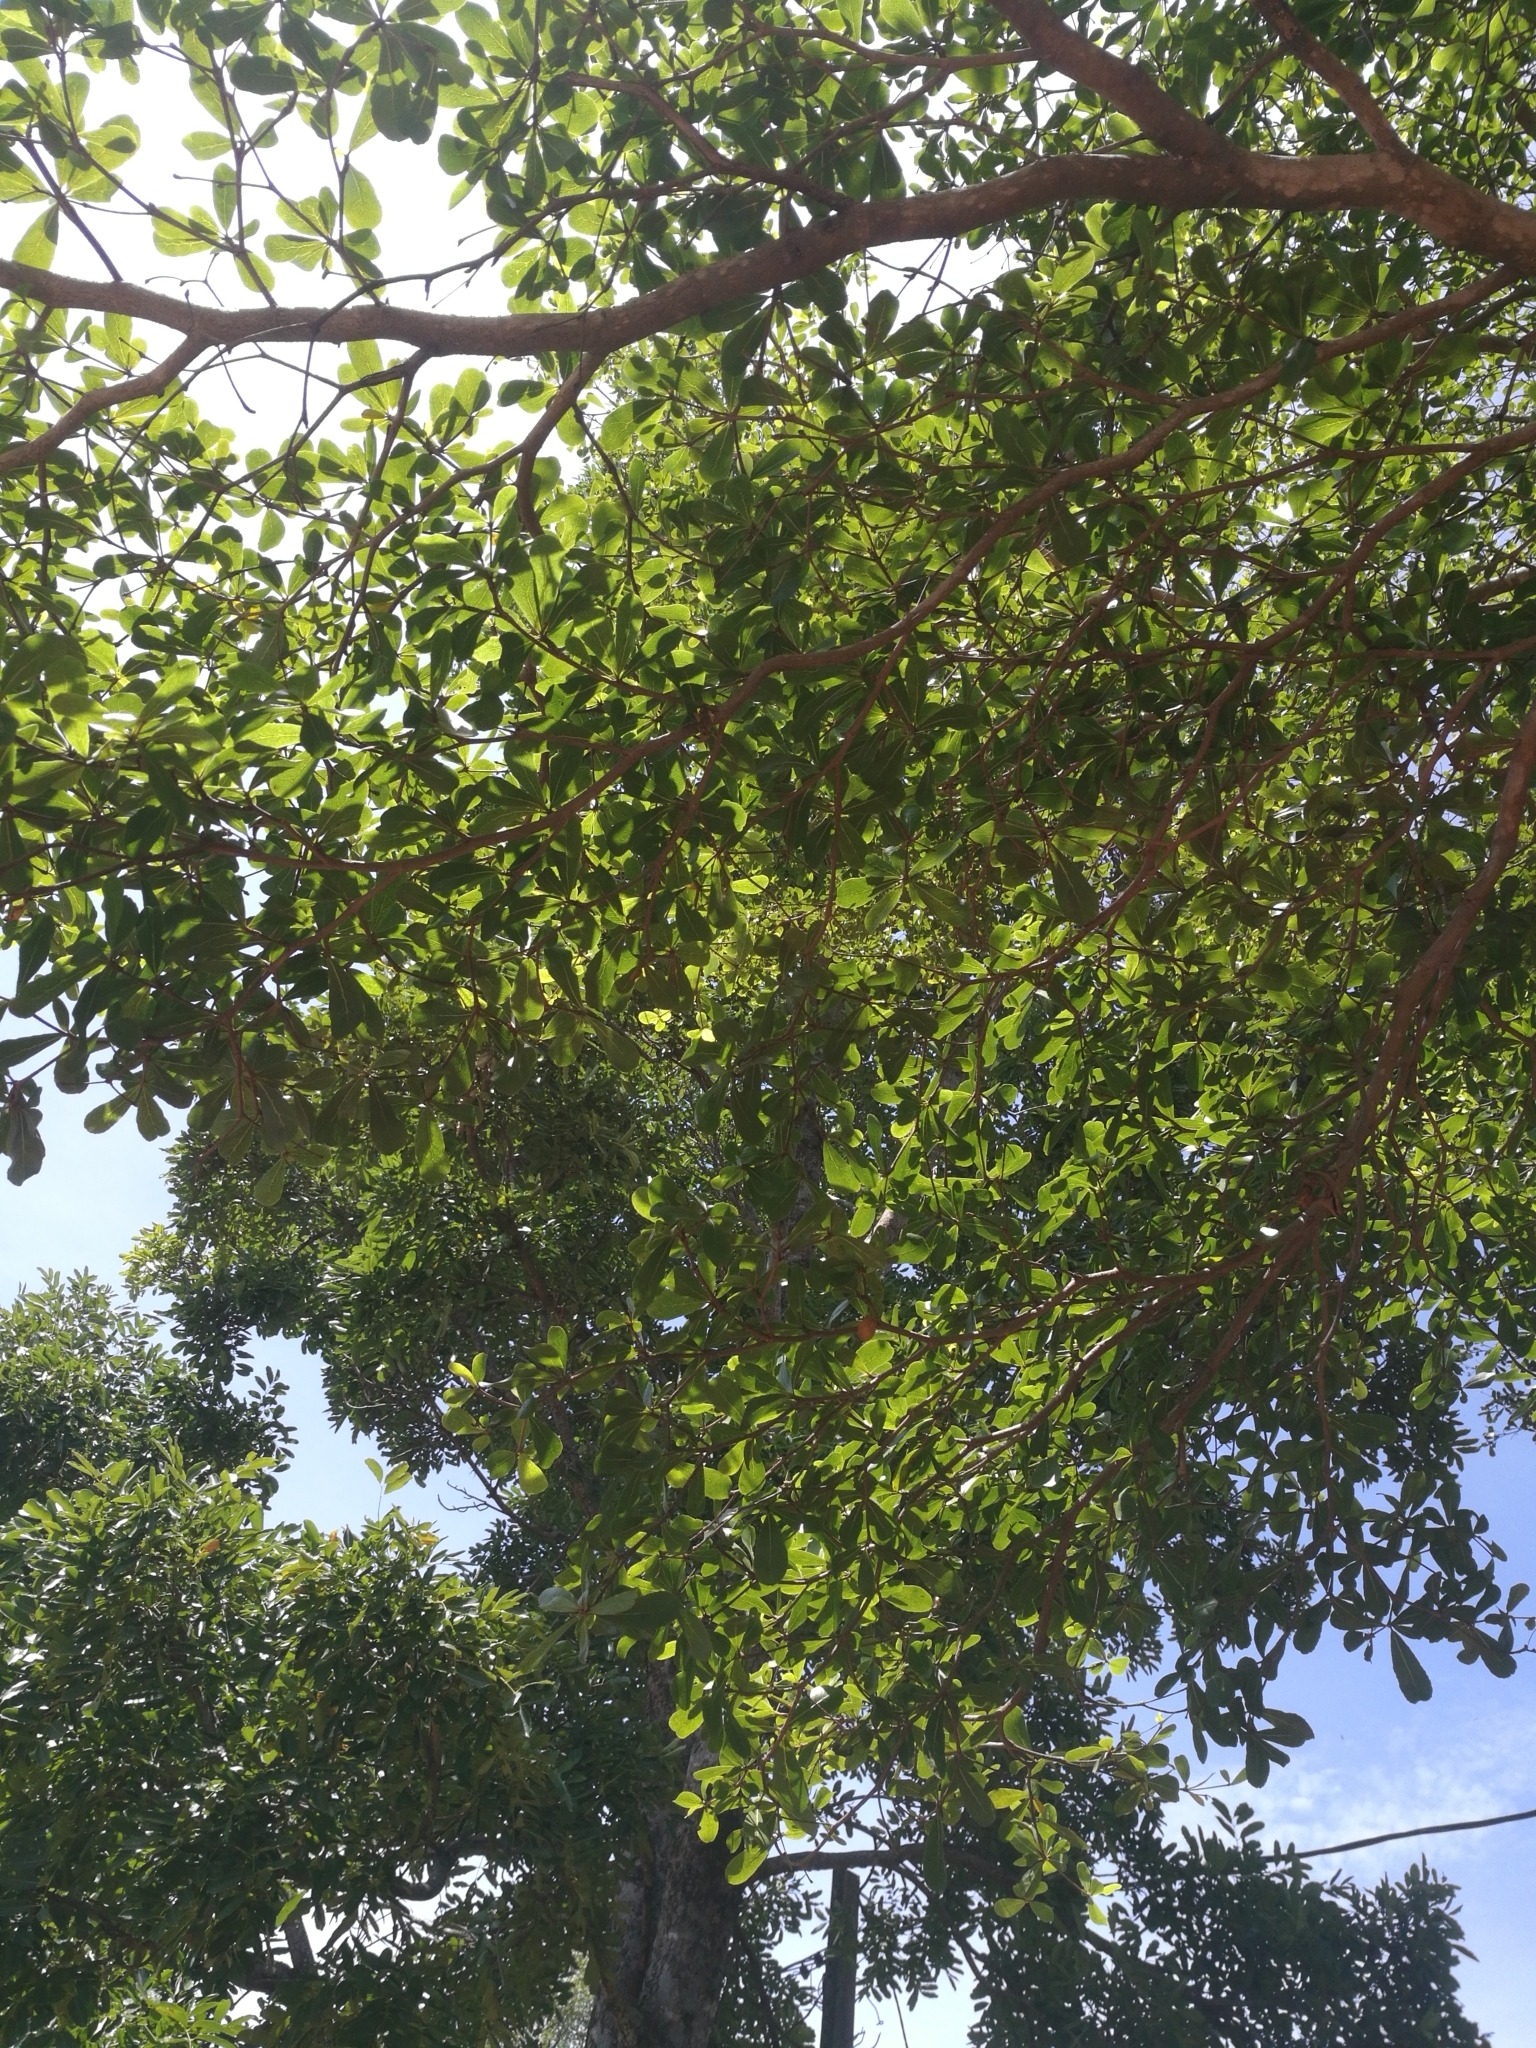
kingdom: Plantae
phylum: Tracheophyta
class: Magnoliopsida
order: Myrtales
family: Combretaceae
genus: Terminalia
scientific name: Terminalia catappa
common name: Tropical almond
